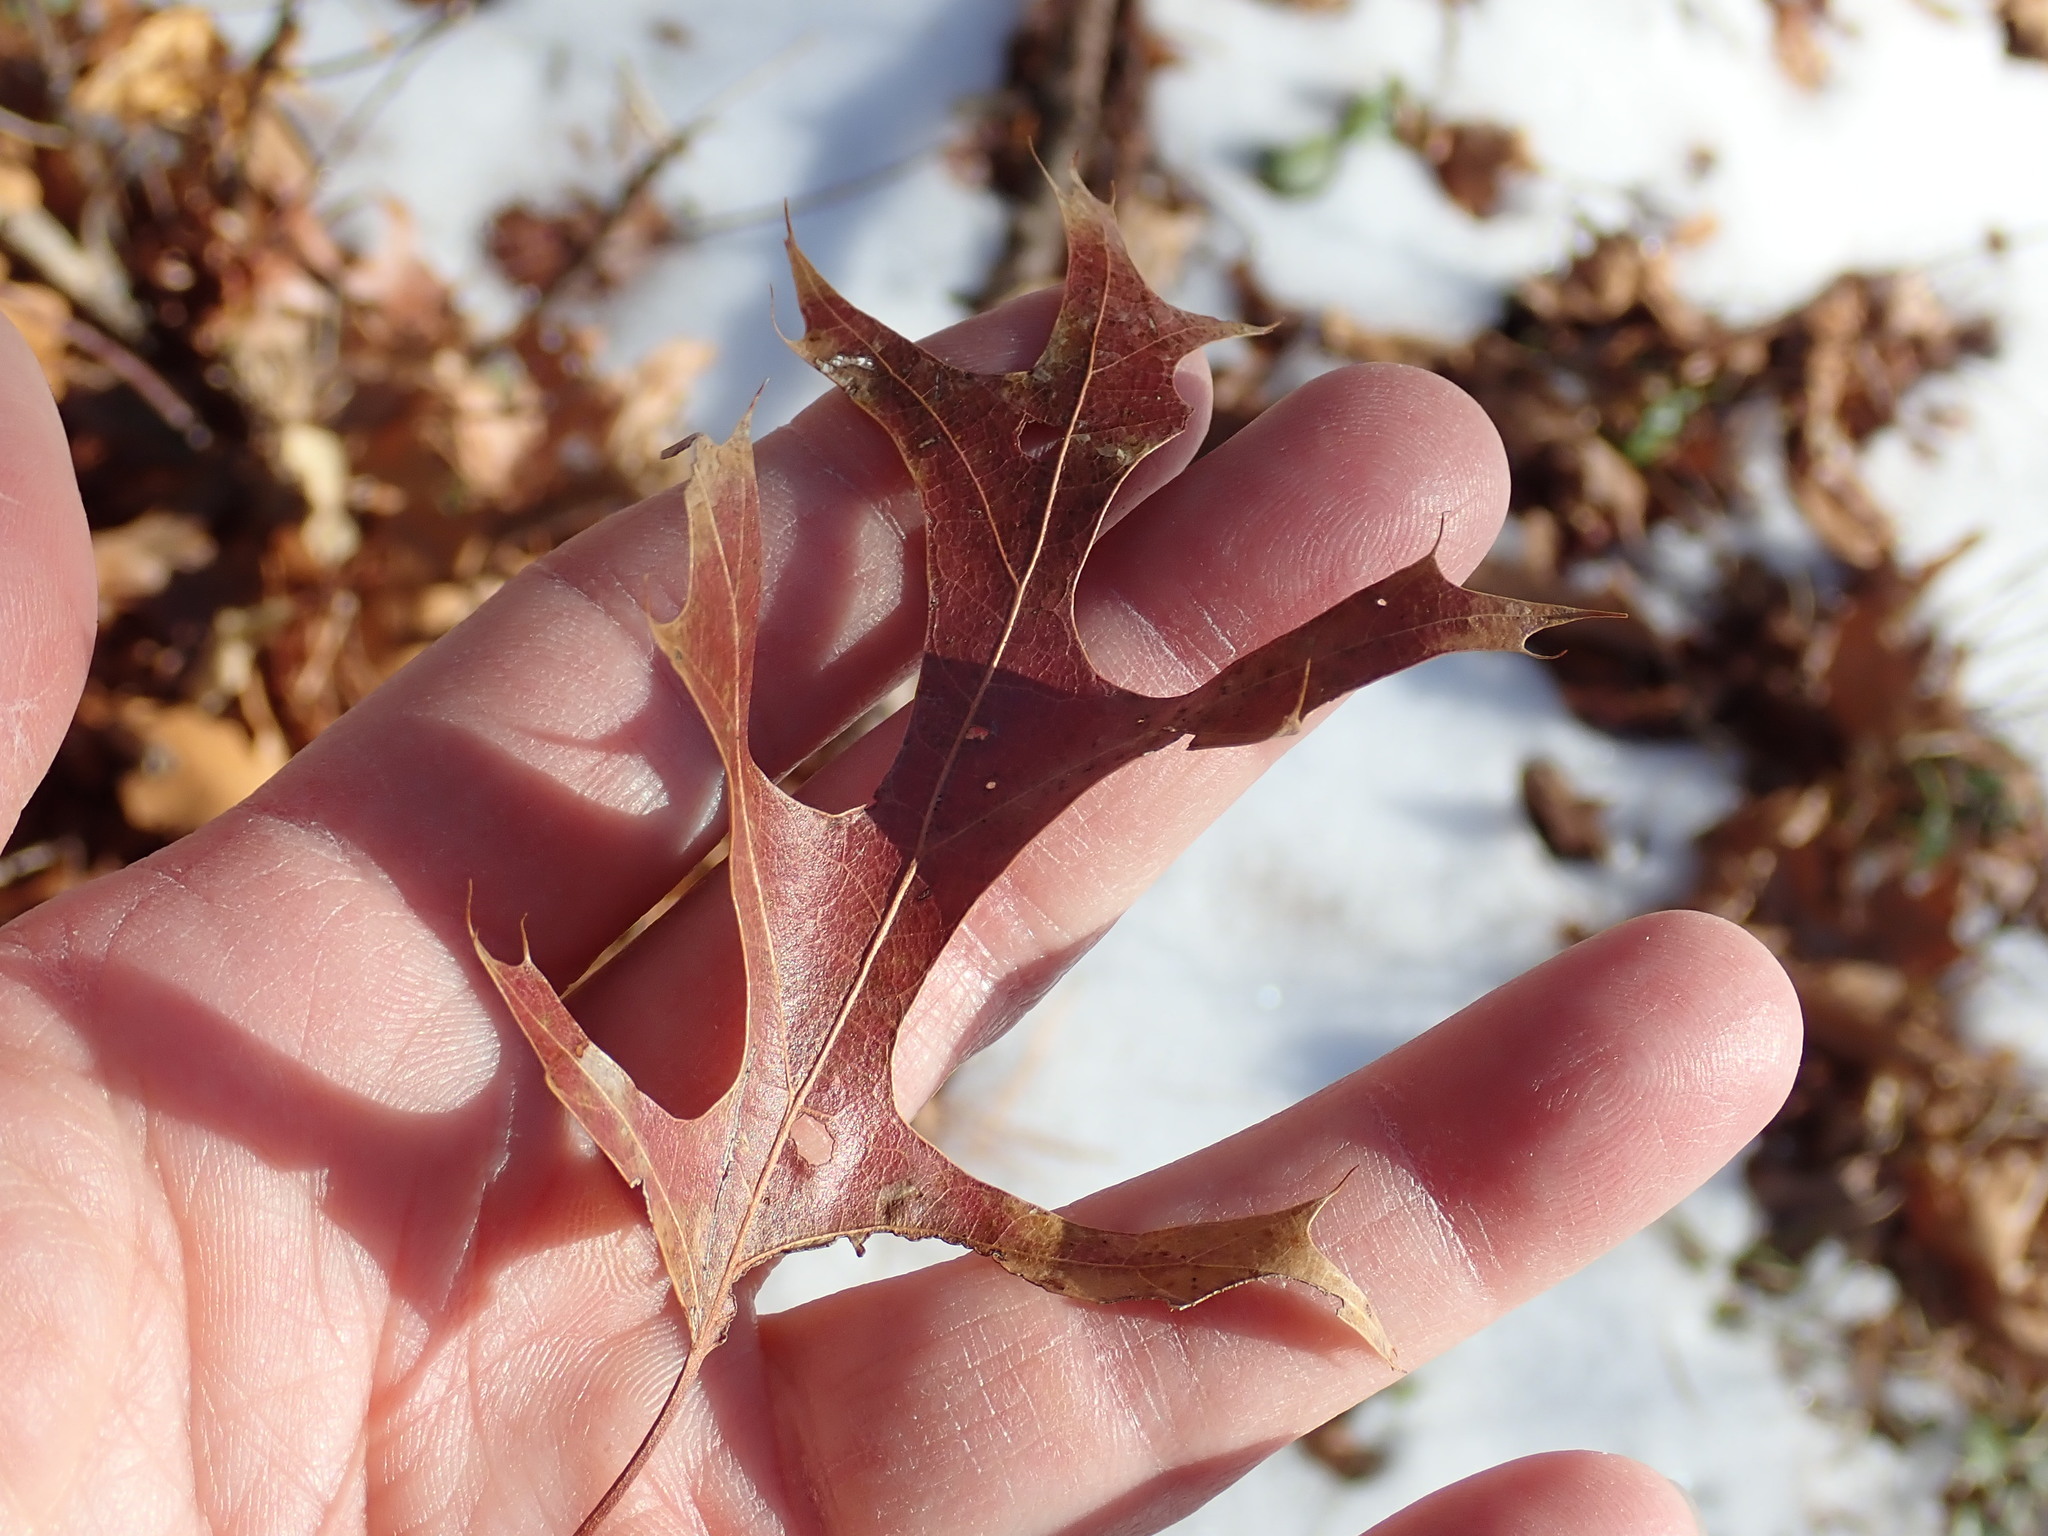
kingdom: Plantae
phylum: Tracheophyta
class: Magnoliopsida
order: Fagales
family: Fagaceae
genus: Quercus
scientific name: Quercus coccinea
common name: Scarlet oak
